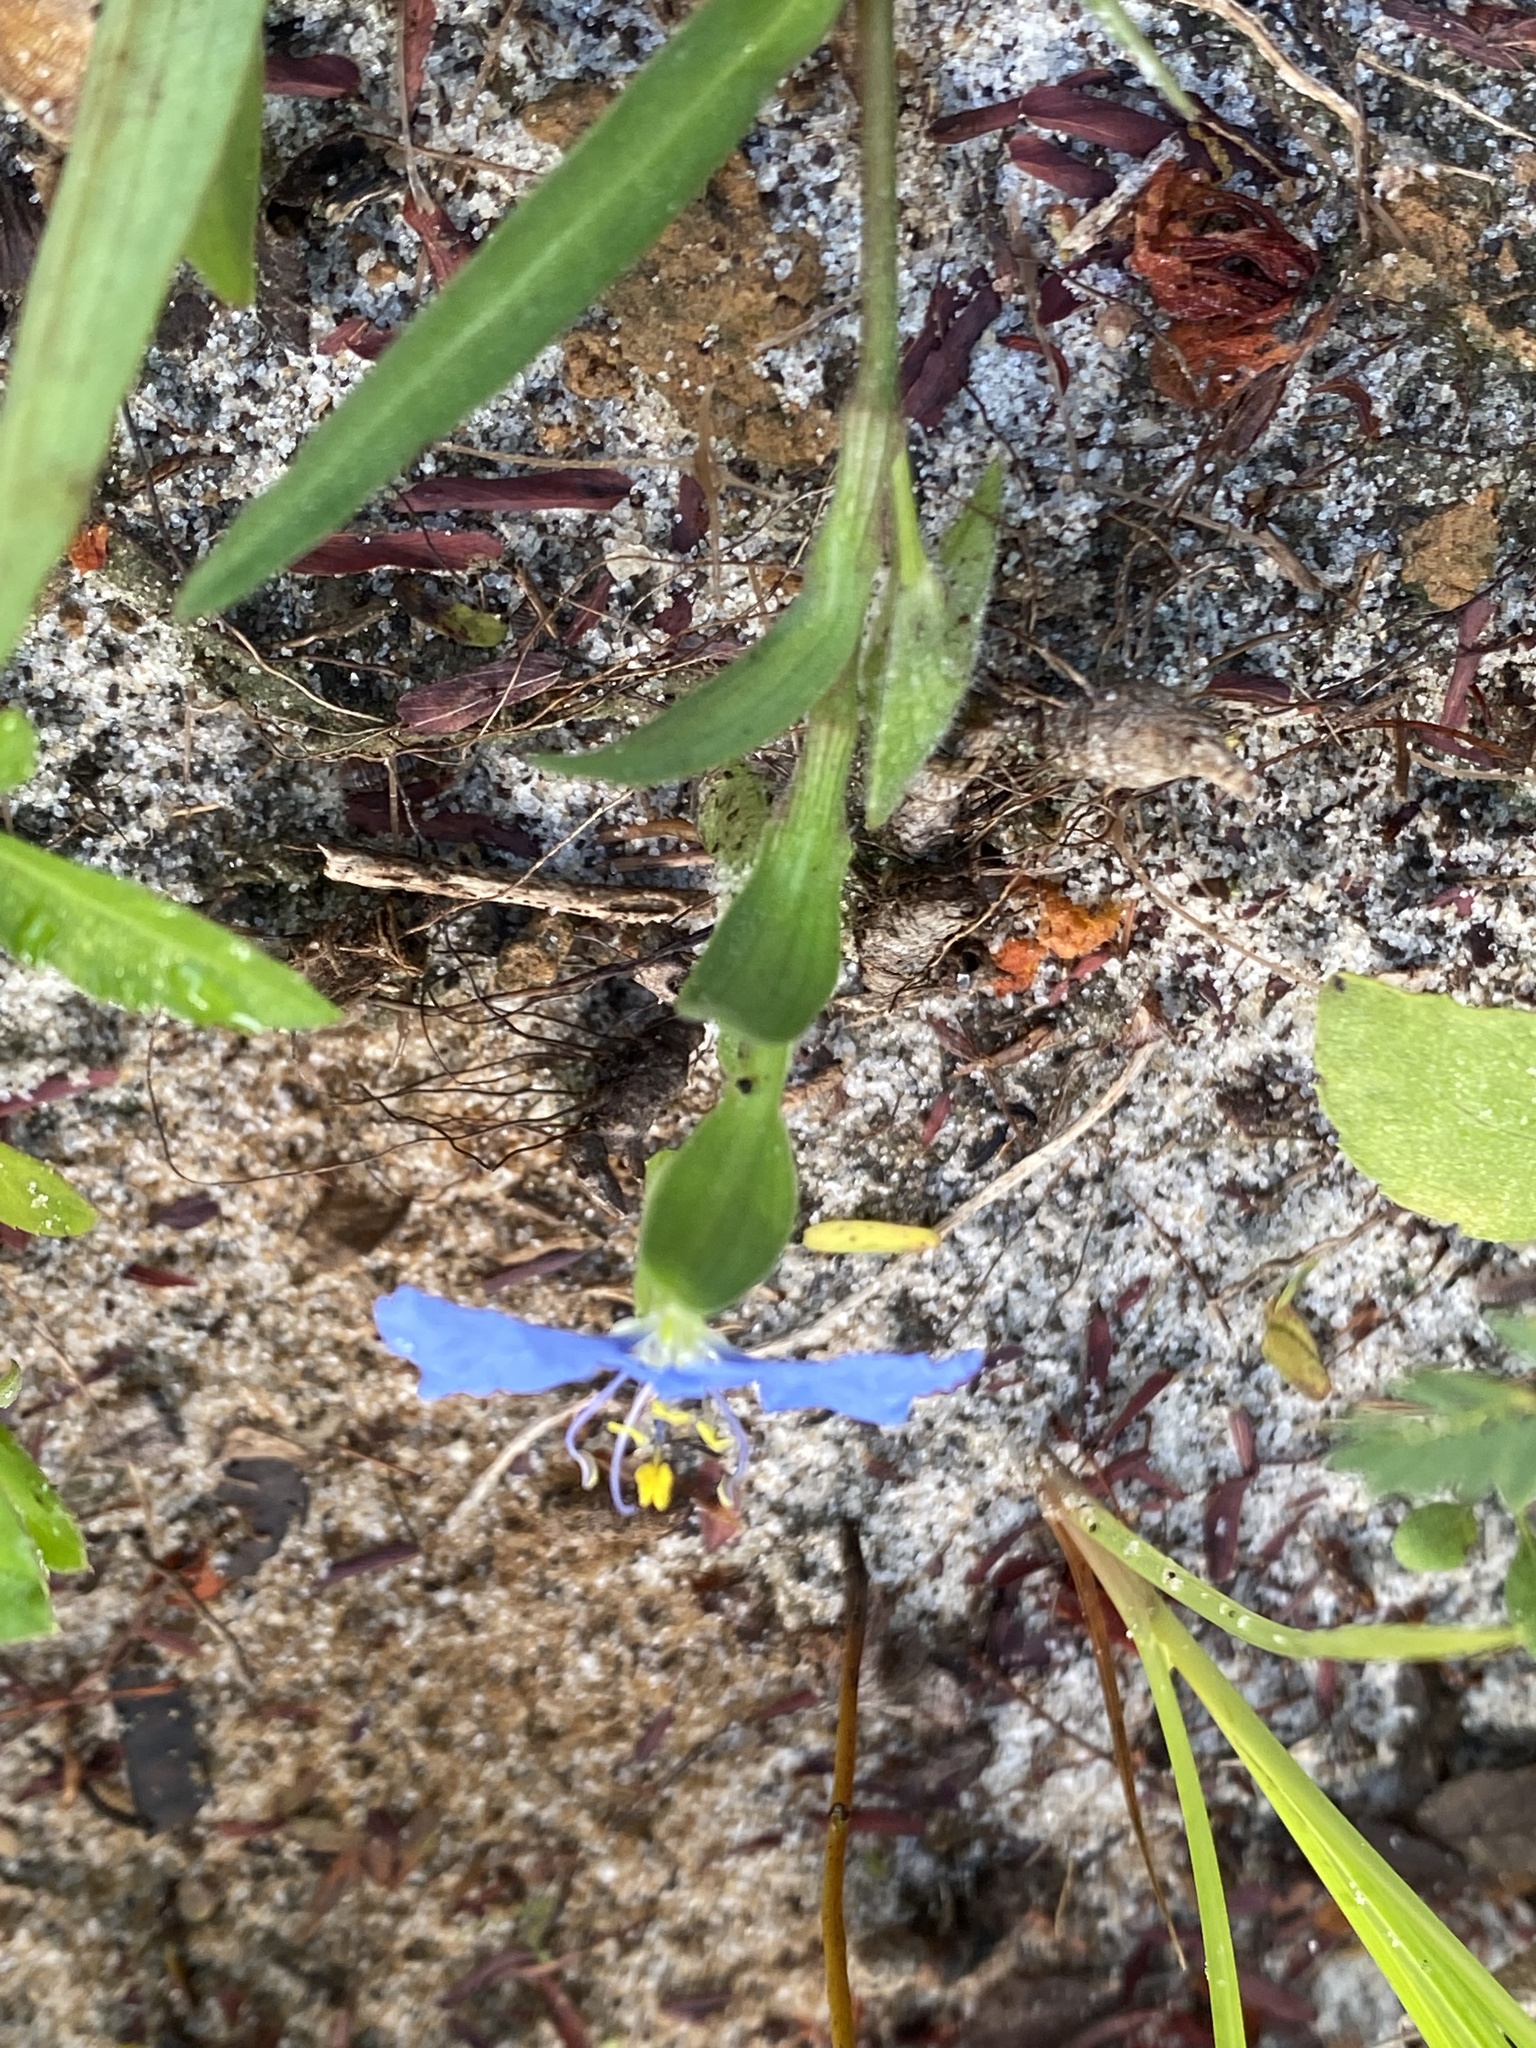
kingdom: Plantae
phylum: Tracheophyta
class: Liliopsida
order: Commelinales
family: Commelinaceae
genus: Commelina
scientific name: Commelina erecta
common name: Blousel blommetjie
